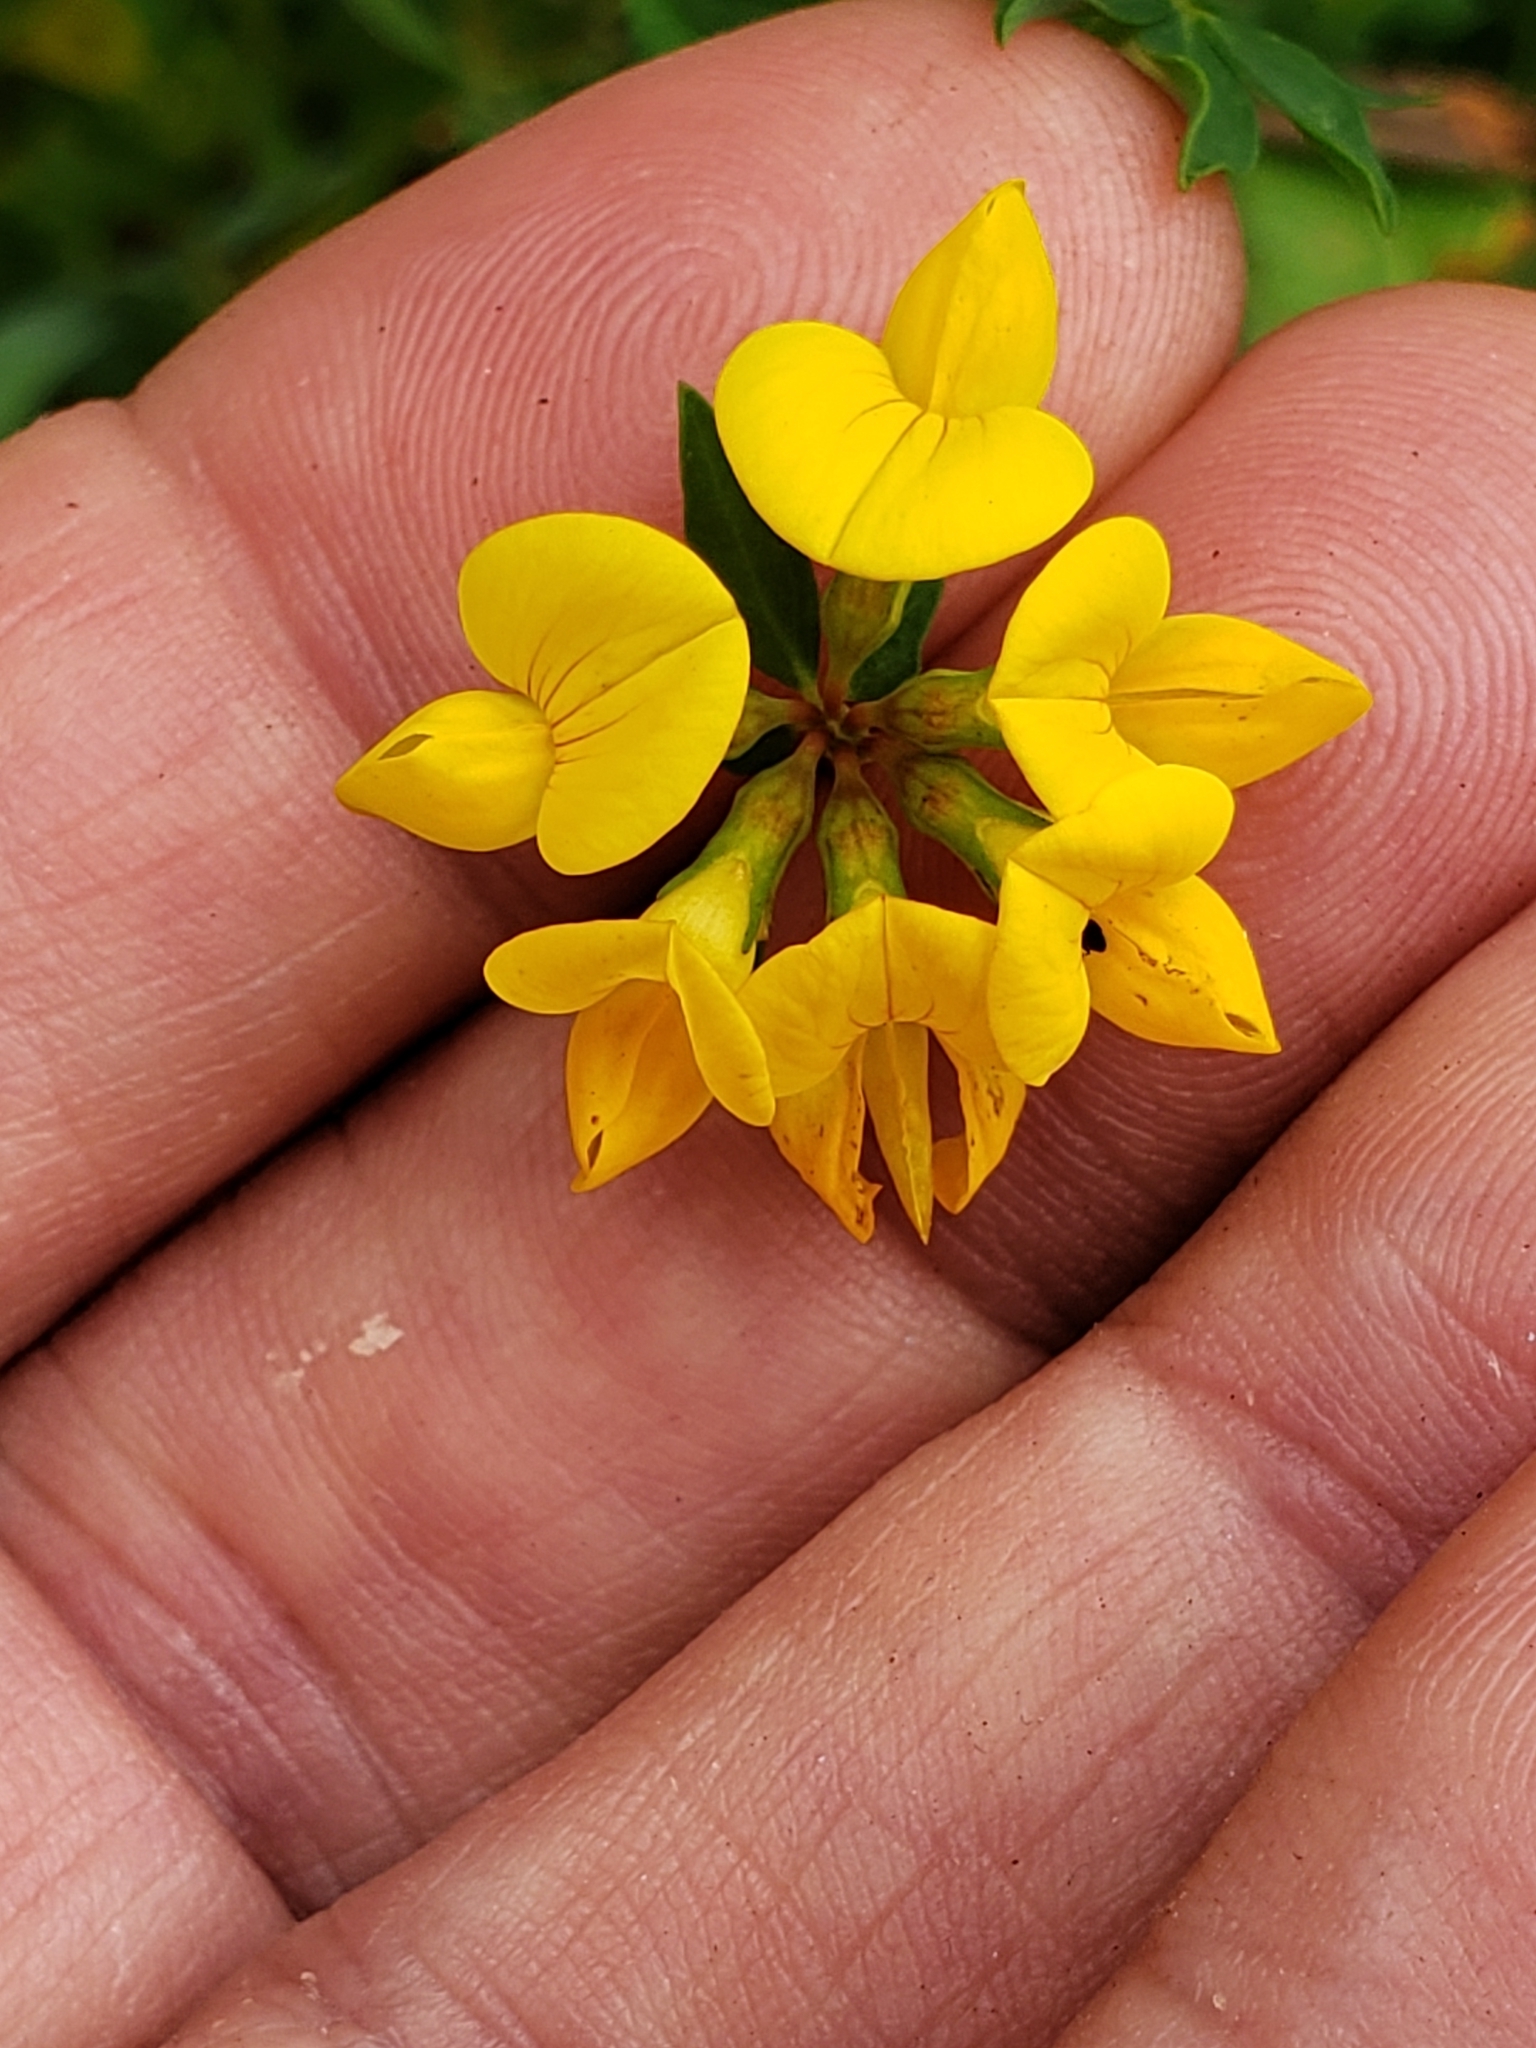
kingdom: Plantae
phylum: Tracheophyta
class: Magnoliopsida
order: Fabales
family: Fabaceae
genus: Lotus
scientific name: Lotus corniculatus
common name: Common bird's-foot-trefoil
